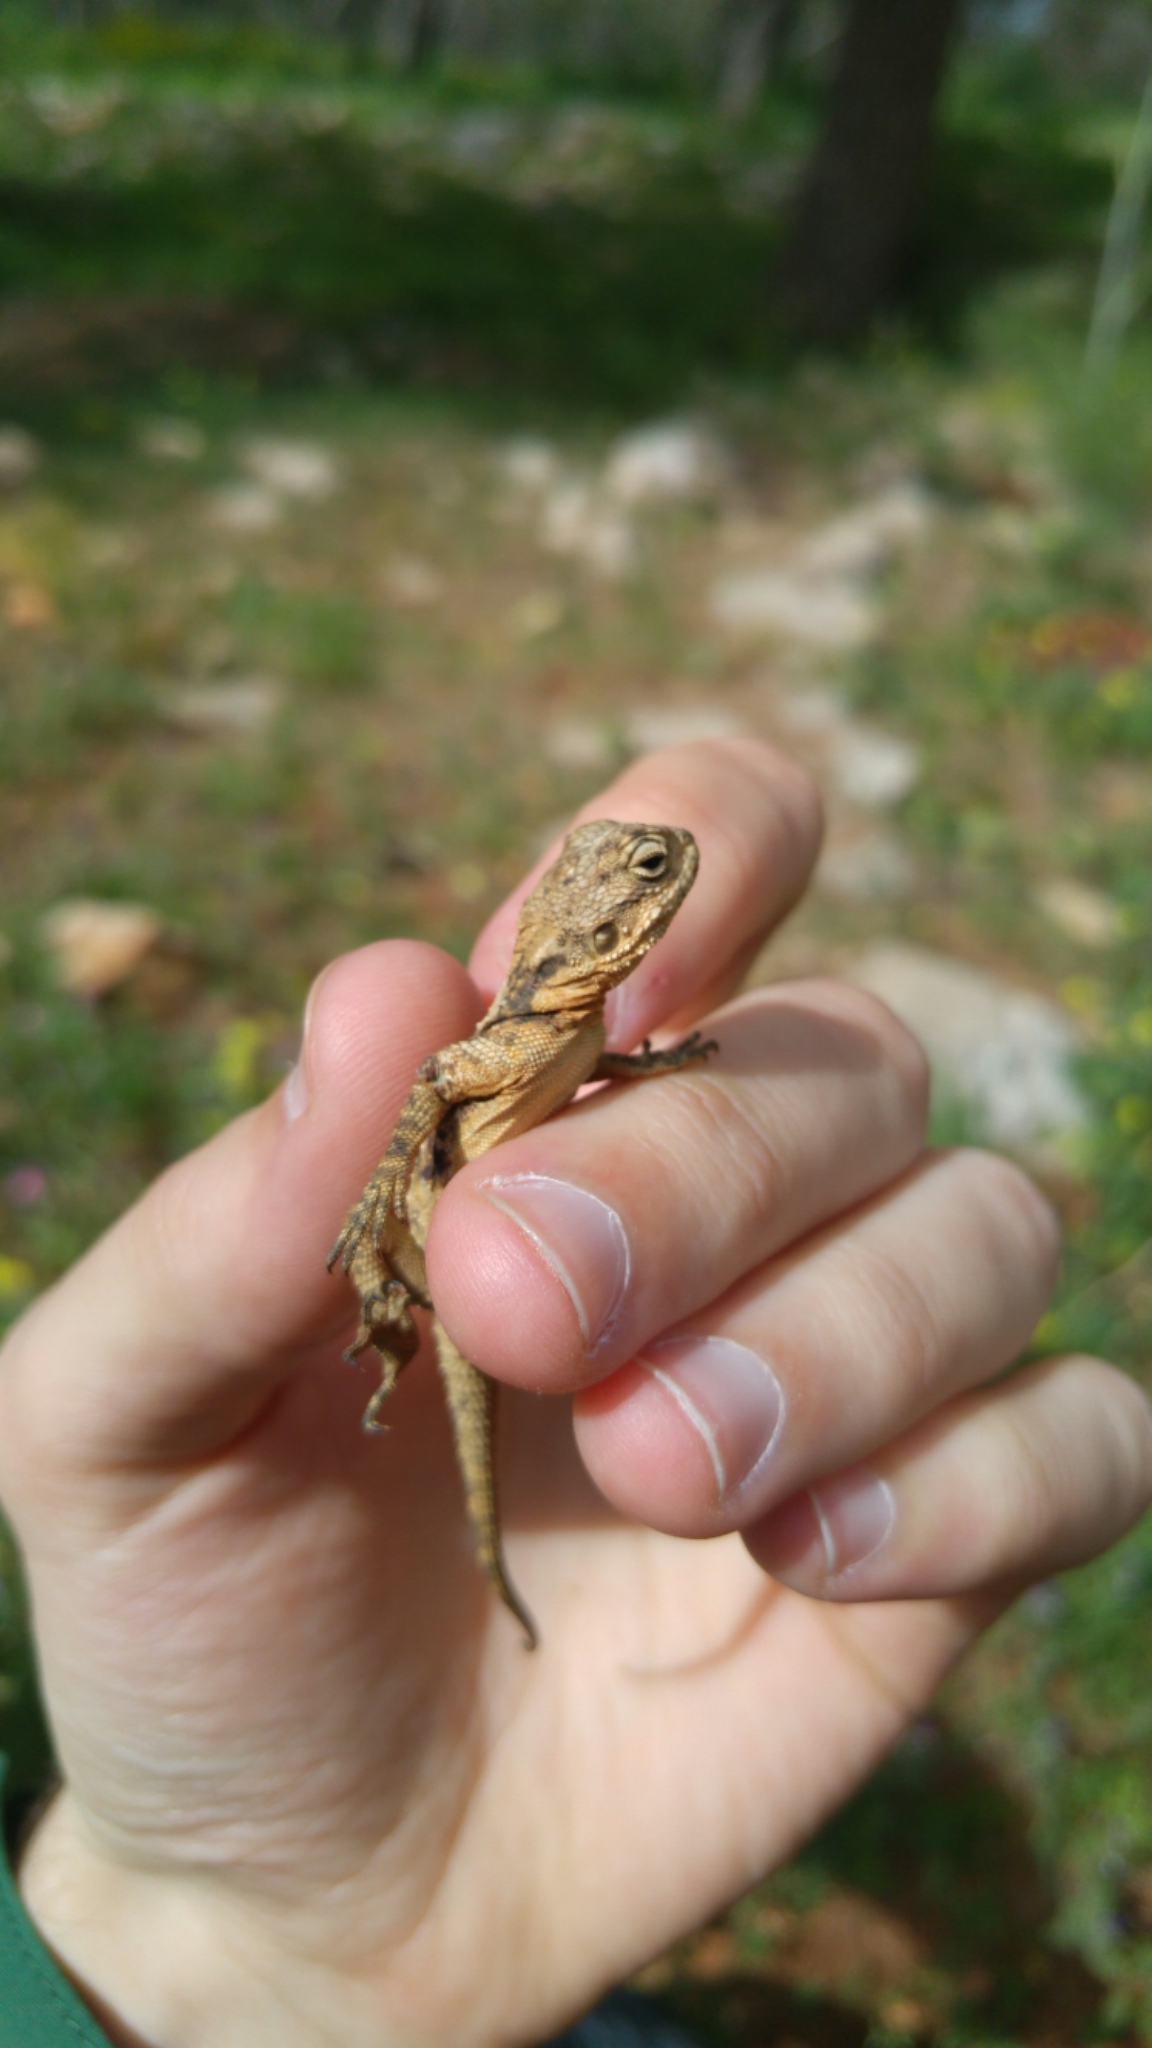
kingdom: Animalia
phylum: Chordata
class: Squamata
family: Agamidae
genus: Laudakia
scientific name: Laudakia vulgaris
